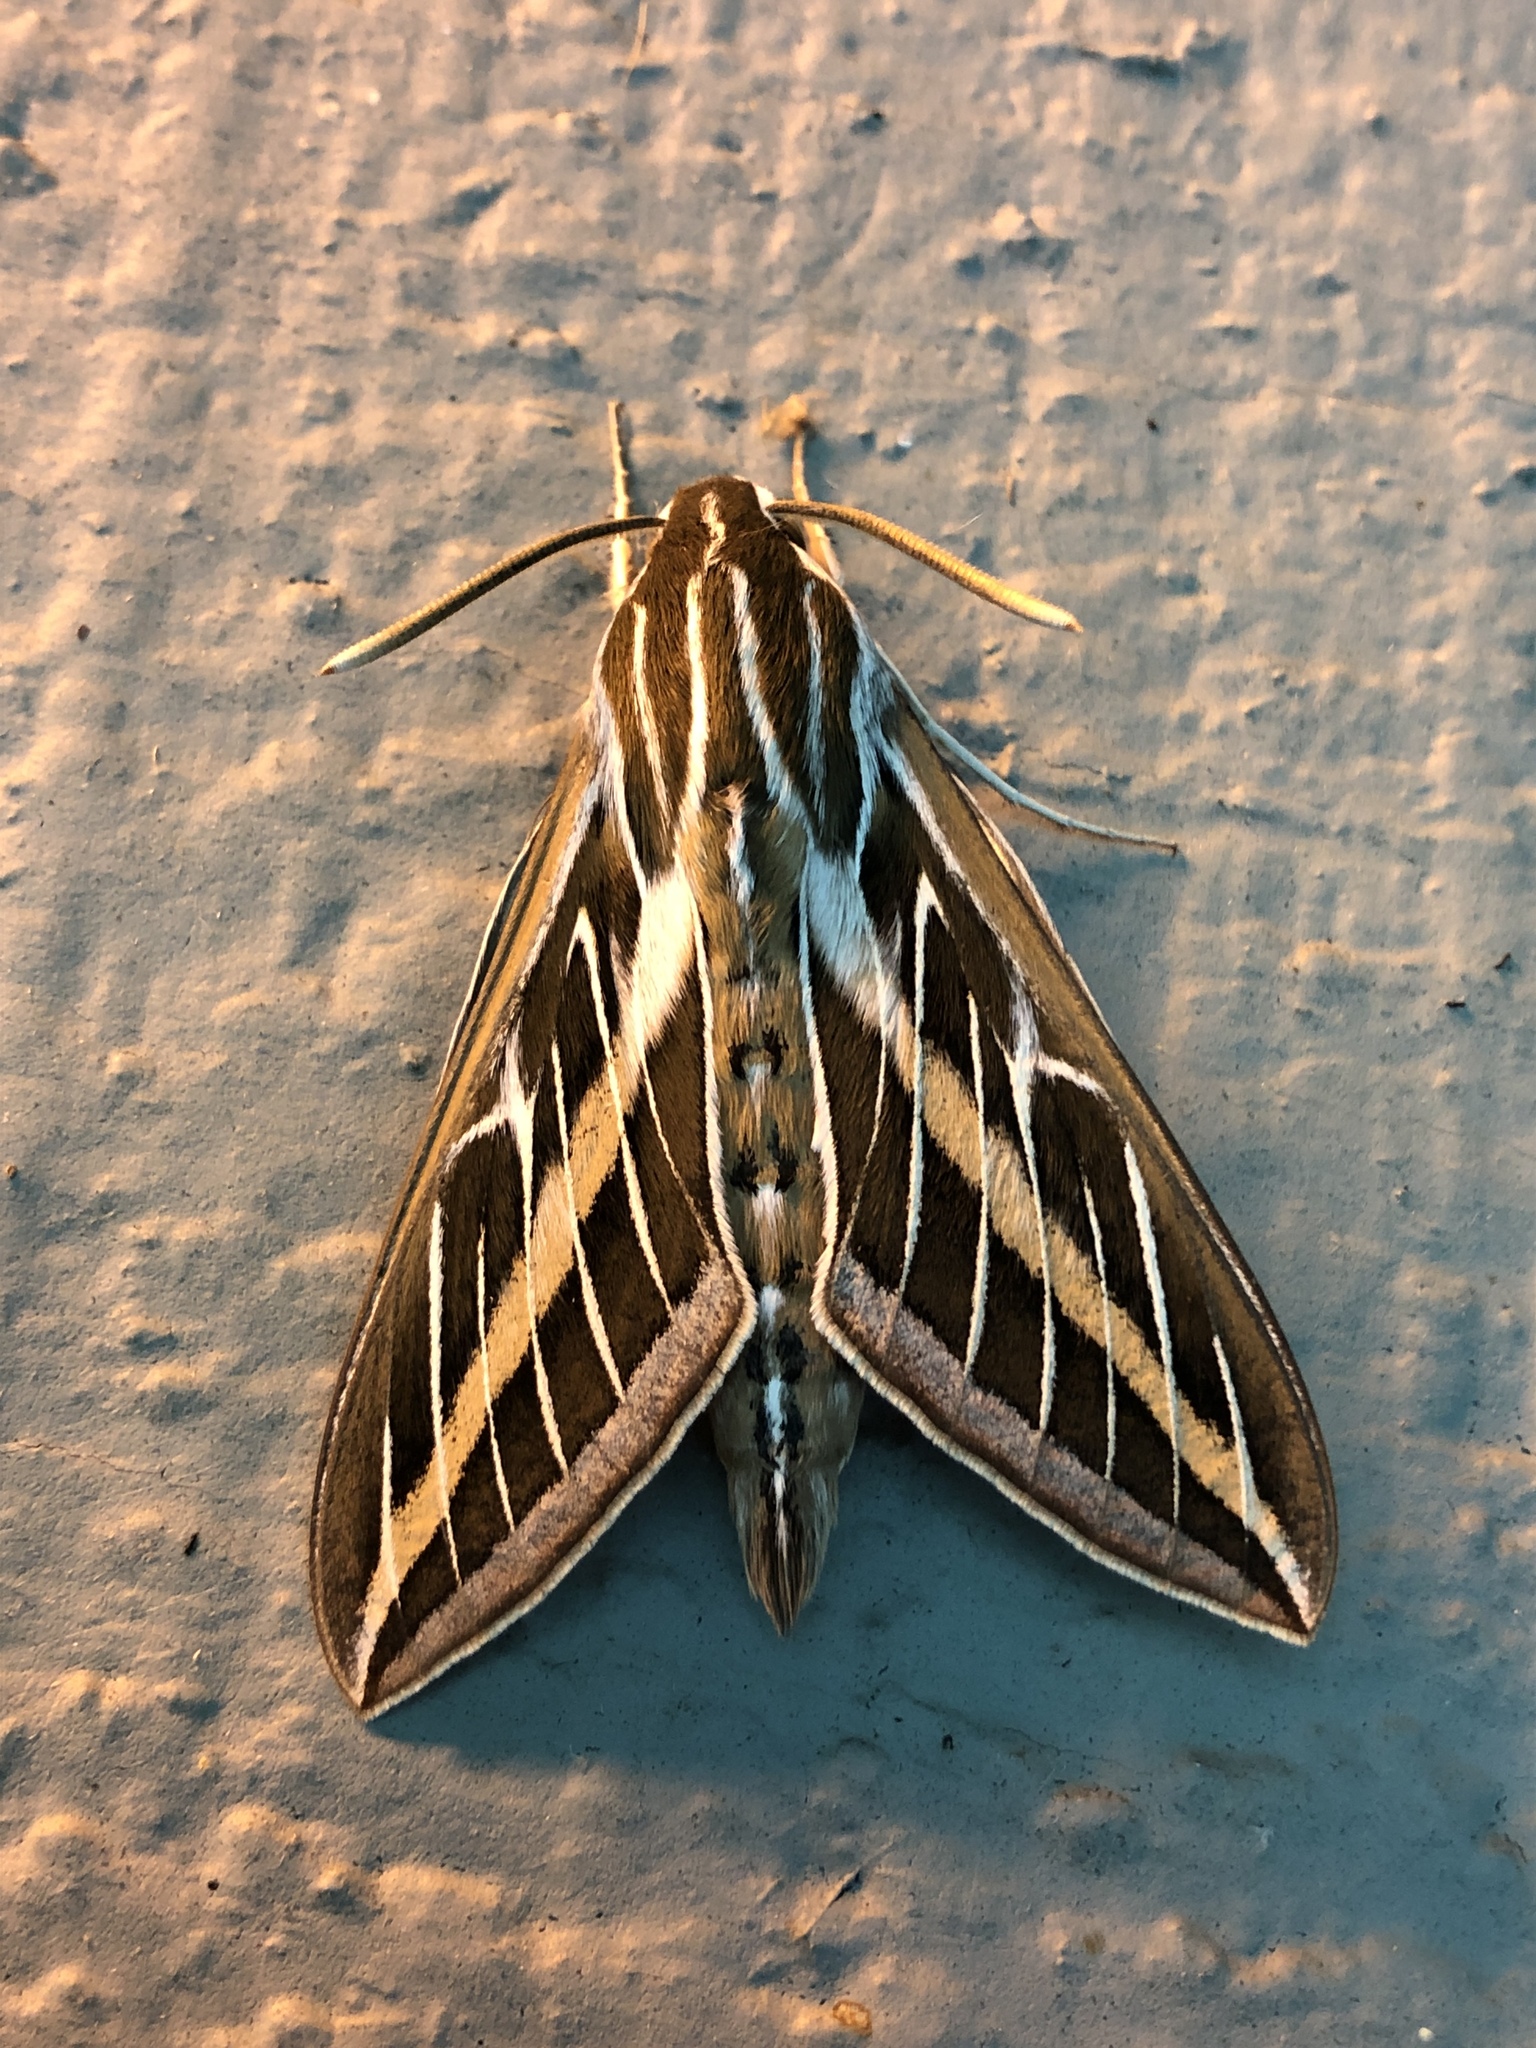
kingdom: Animalia
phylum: Arthropoda
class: Insecta
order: Lepidoptera
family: Sphingidae
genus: Hyles
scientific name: Hyles lineata
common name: White-lined sphinx
